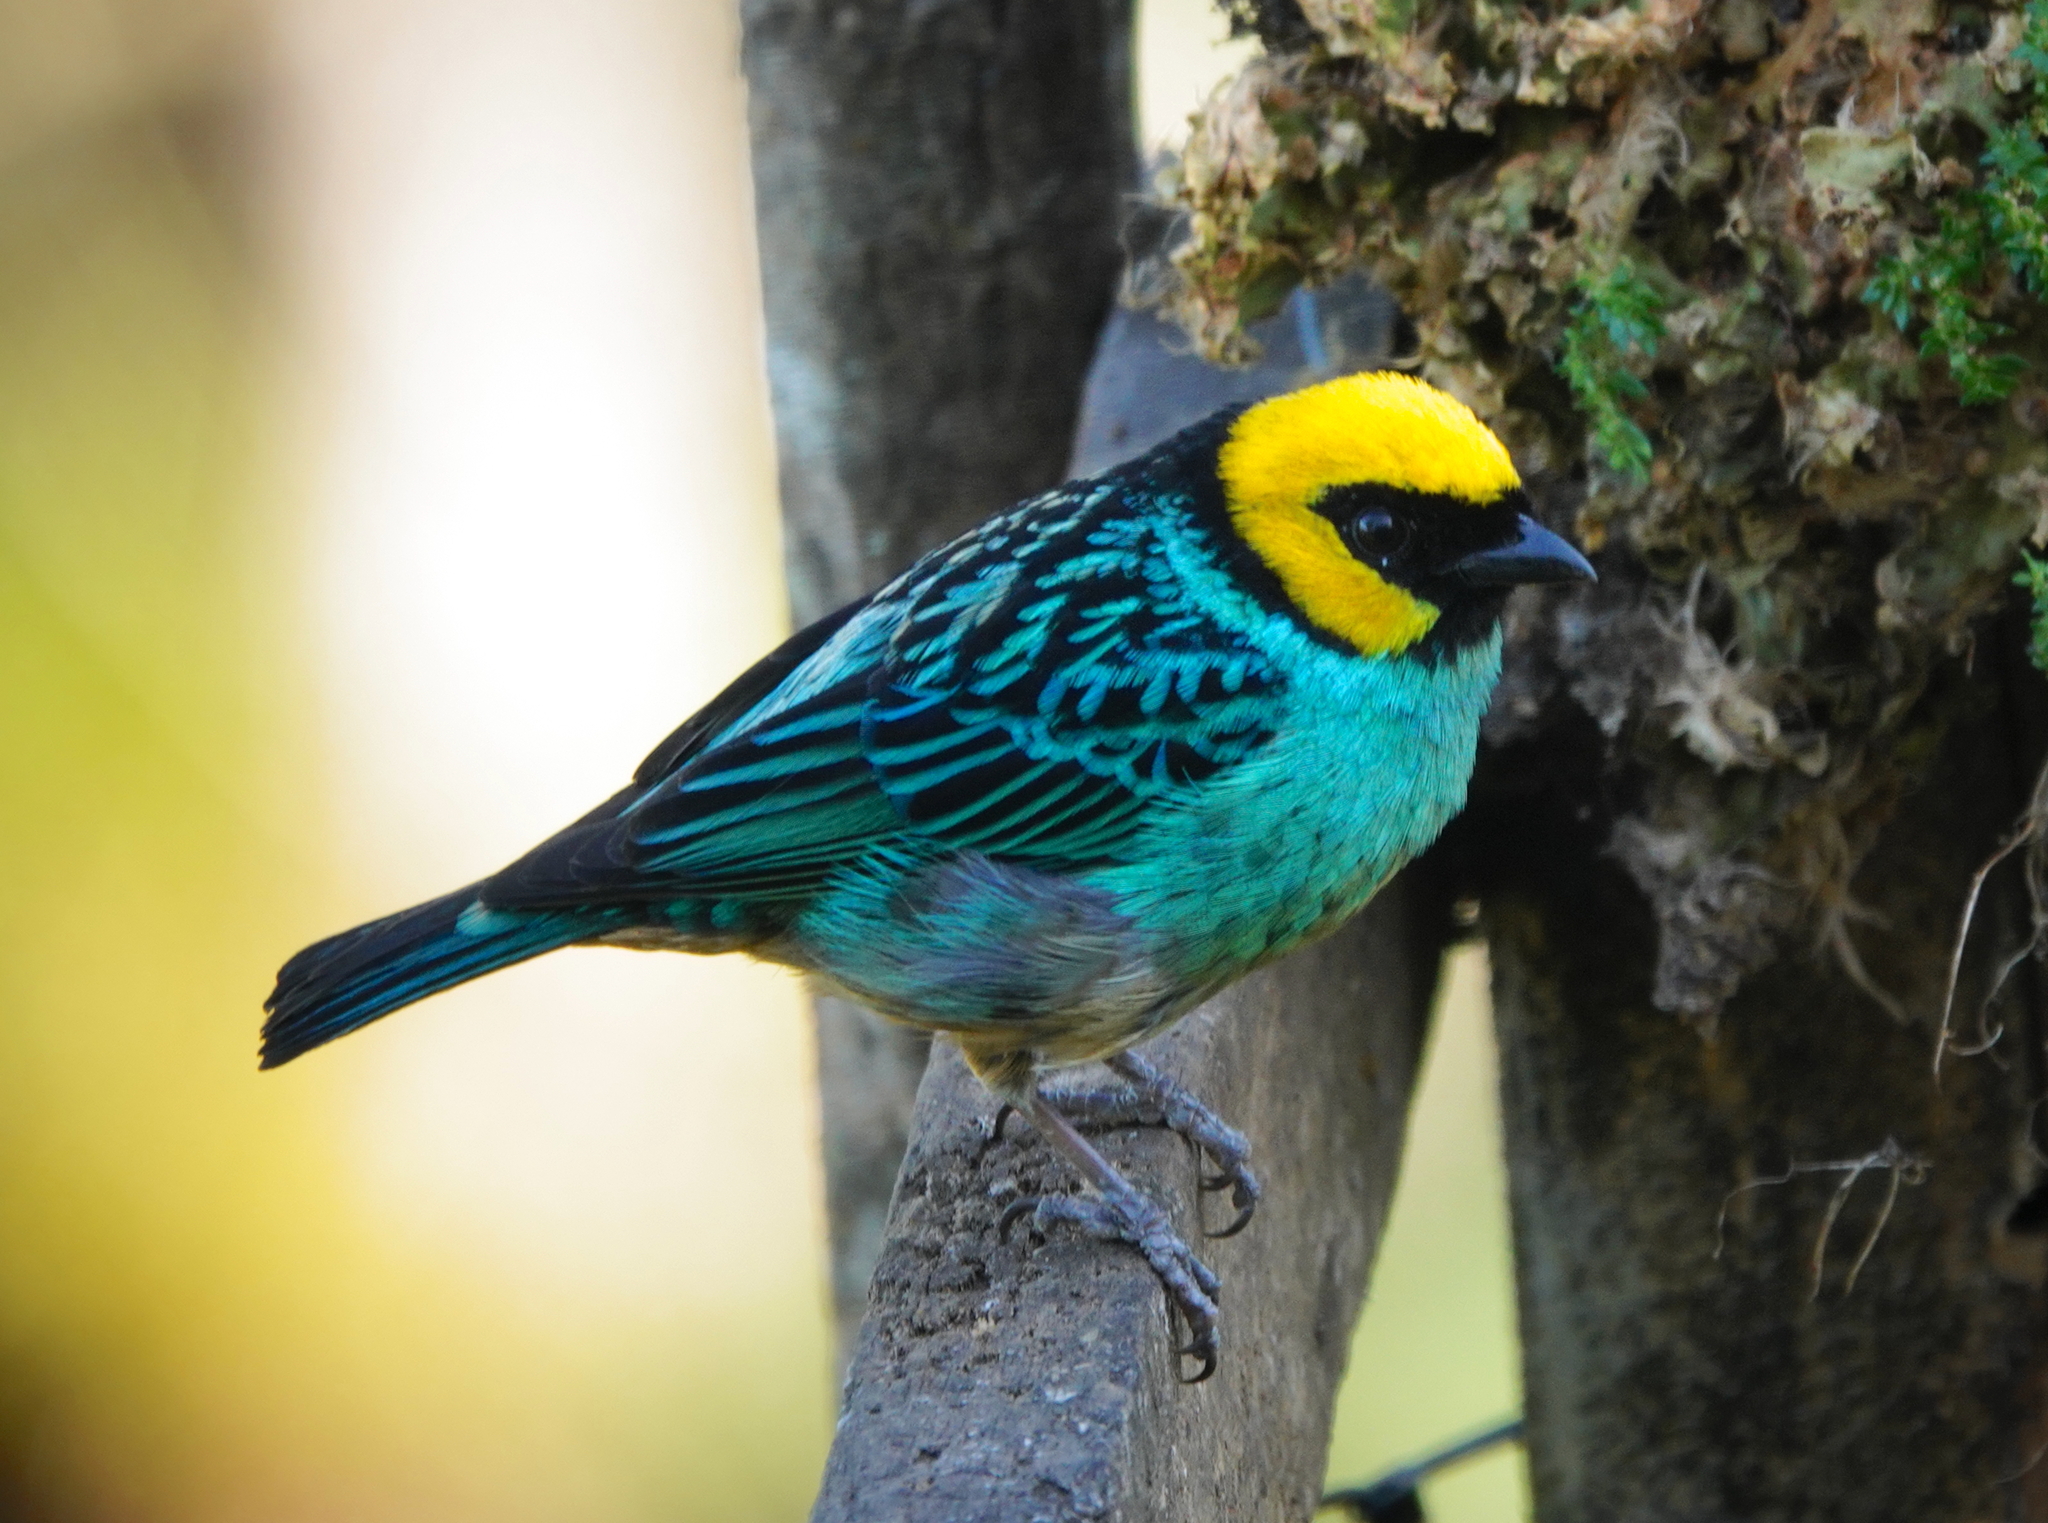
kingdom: Animalia
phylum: Chordata
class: Aves
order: Passeriformes
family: Thraupidae
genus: Tangara
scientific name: Tangara xanthocephala
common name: Saffron-crowned tanager
